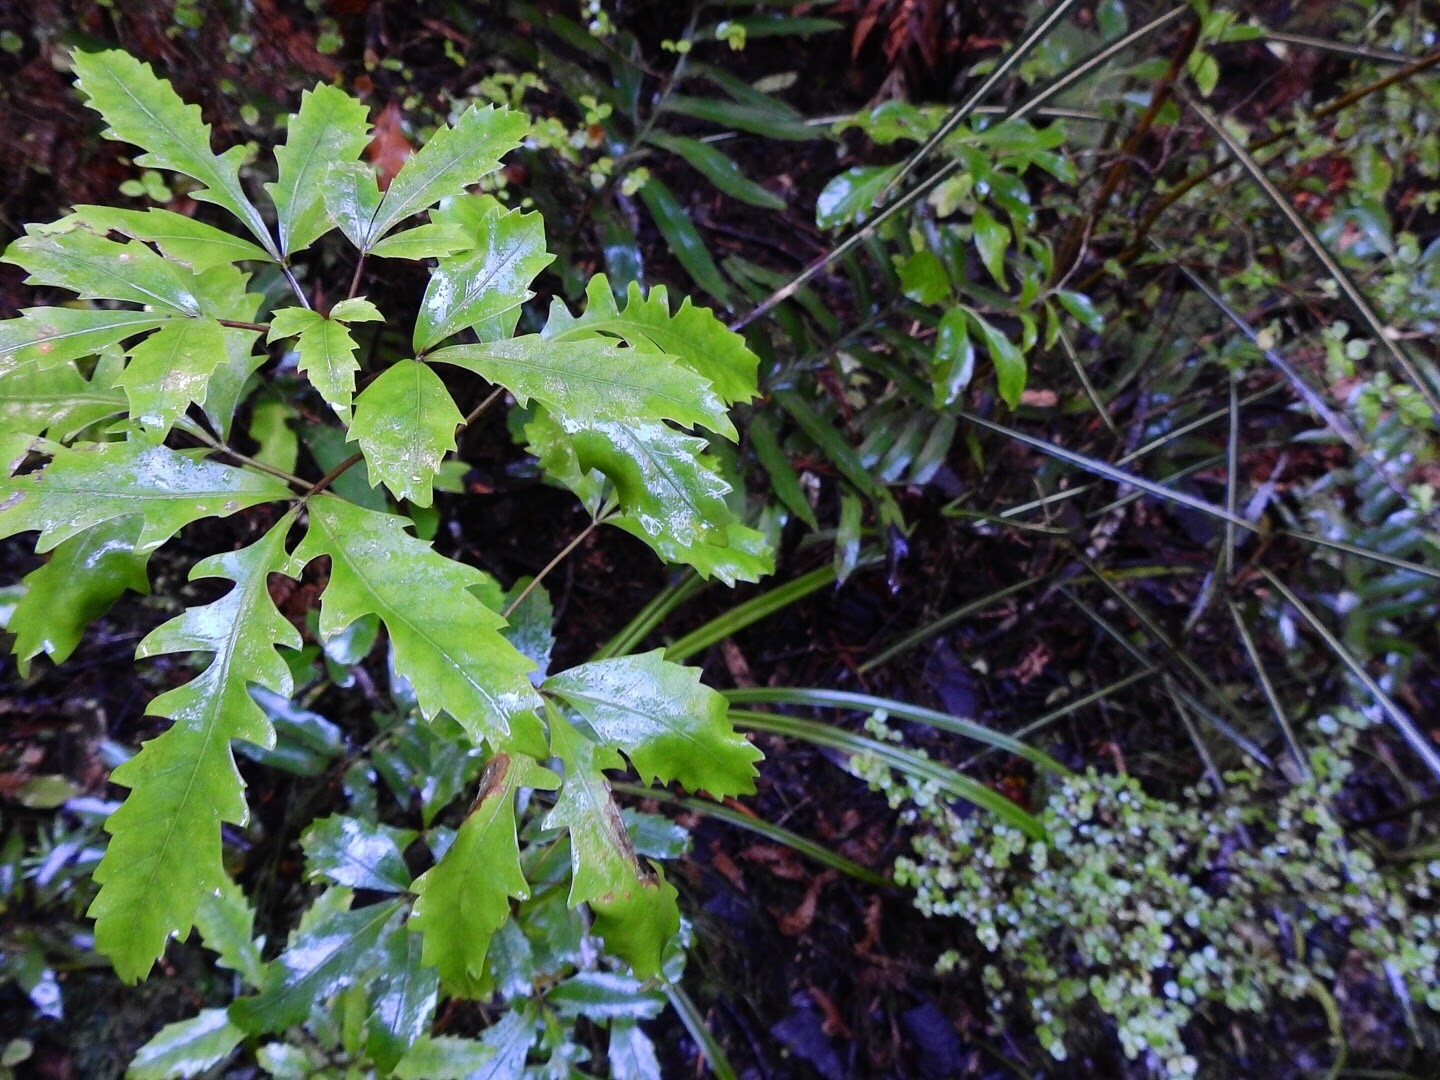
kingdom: Plantae
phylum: Tracheophyta
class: Magnoliopsida
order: Apiales
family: Araliaceae
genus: Raukaua
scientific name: Raukaua simplex
